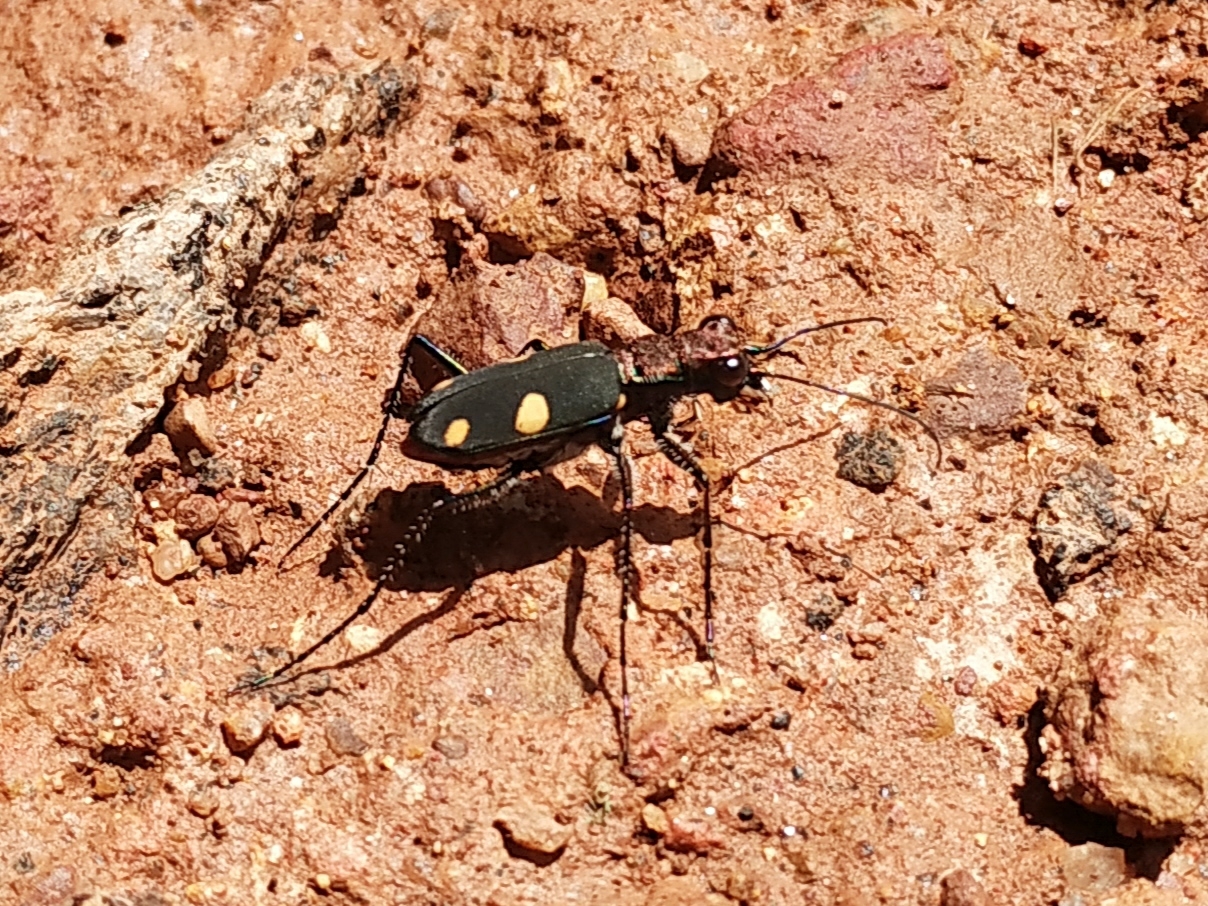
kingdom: Animalia
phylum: Arthropoda
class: Insecta
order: Coleoptera
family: Carabidae
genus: Cicindela
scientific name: Cicindela bicolor
